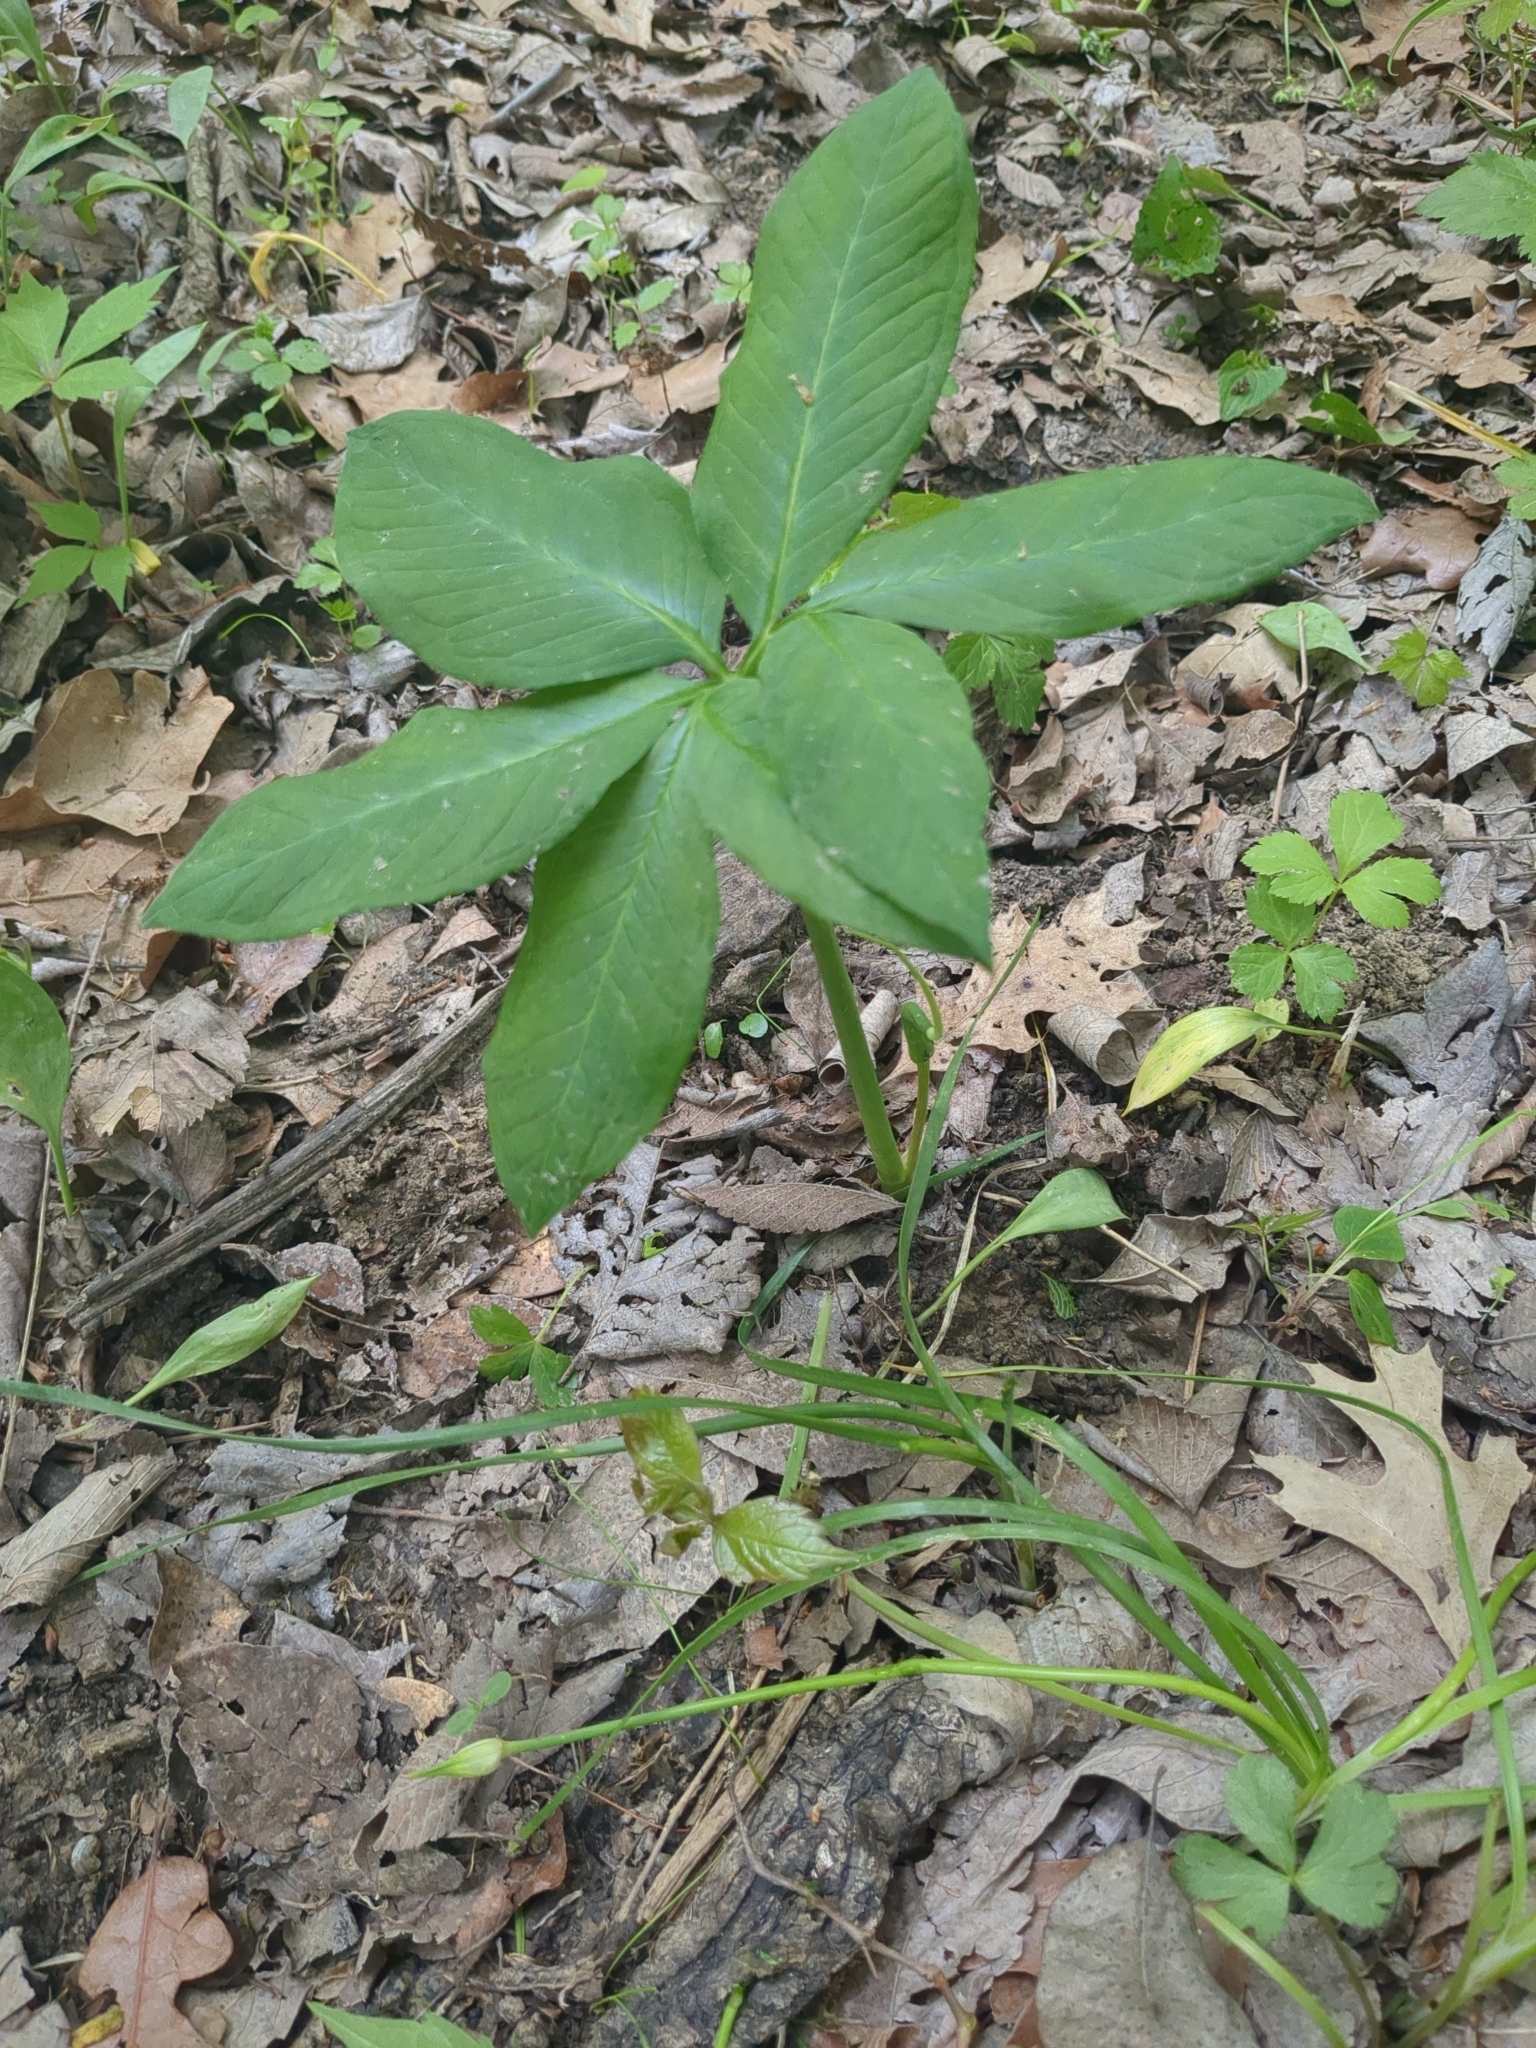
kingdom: Plantae
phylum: Tracheophyta
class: Liliopsida
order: Alismatales
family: Araceae
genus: Arisaema
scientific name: Arisaema dracontium
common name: Dragon-arum
